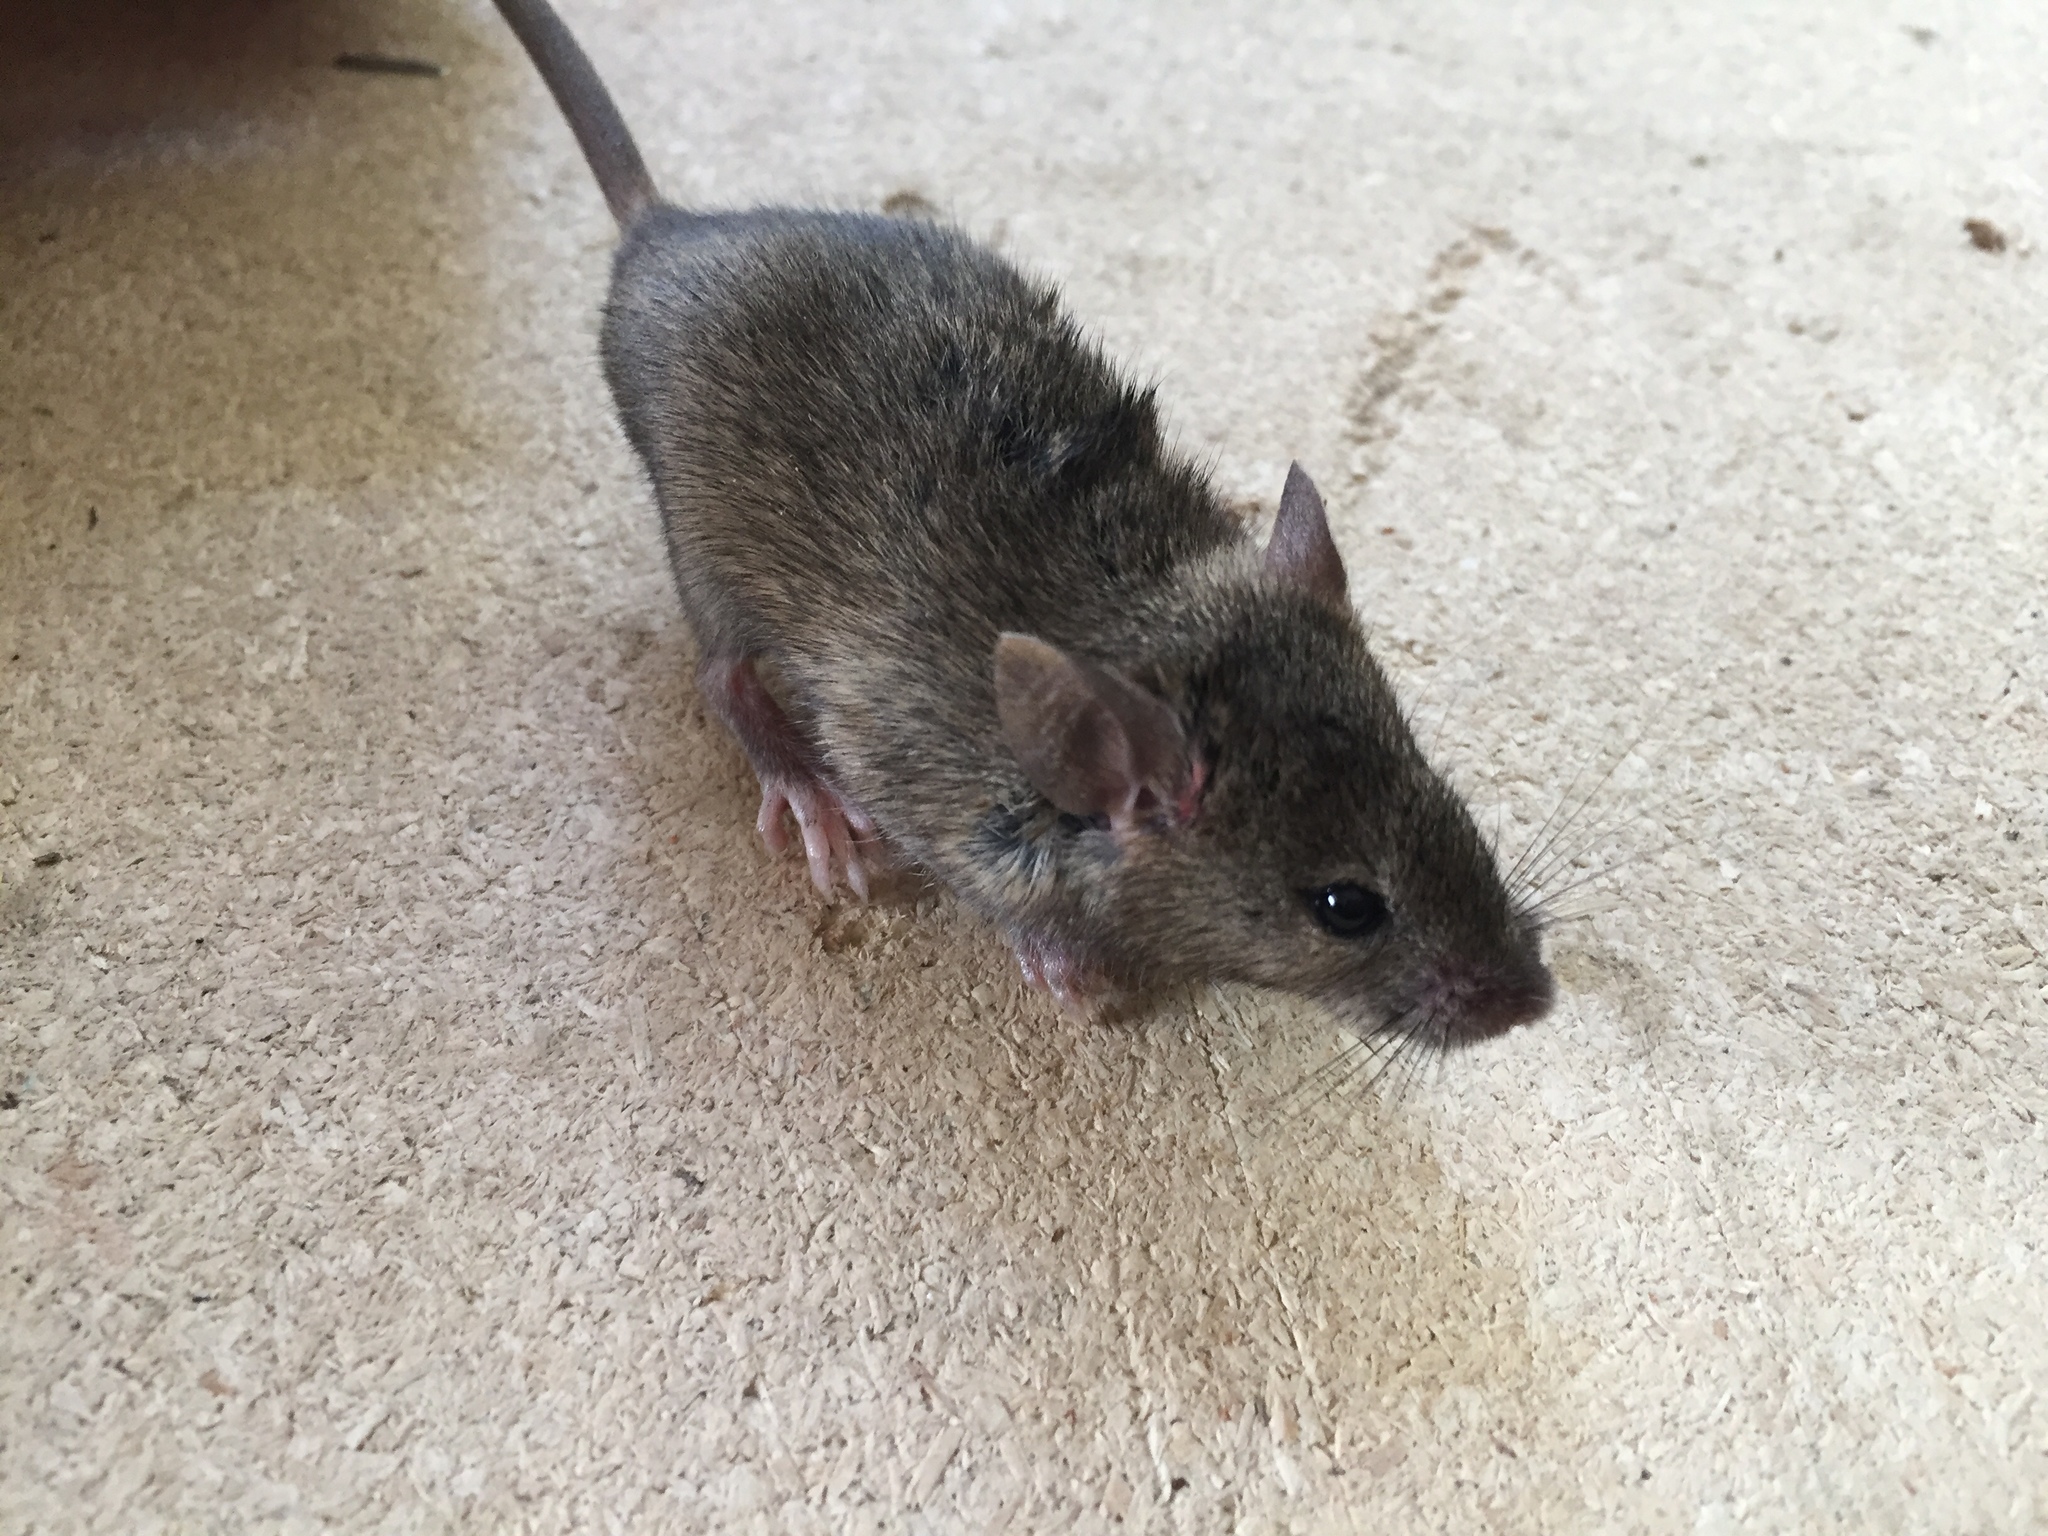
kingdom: Animalia
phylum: Chordata
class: Mammalia
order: Rodentia
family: Muridae
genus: Mus
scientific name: Mus musculus
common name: House mouse
